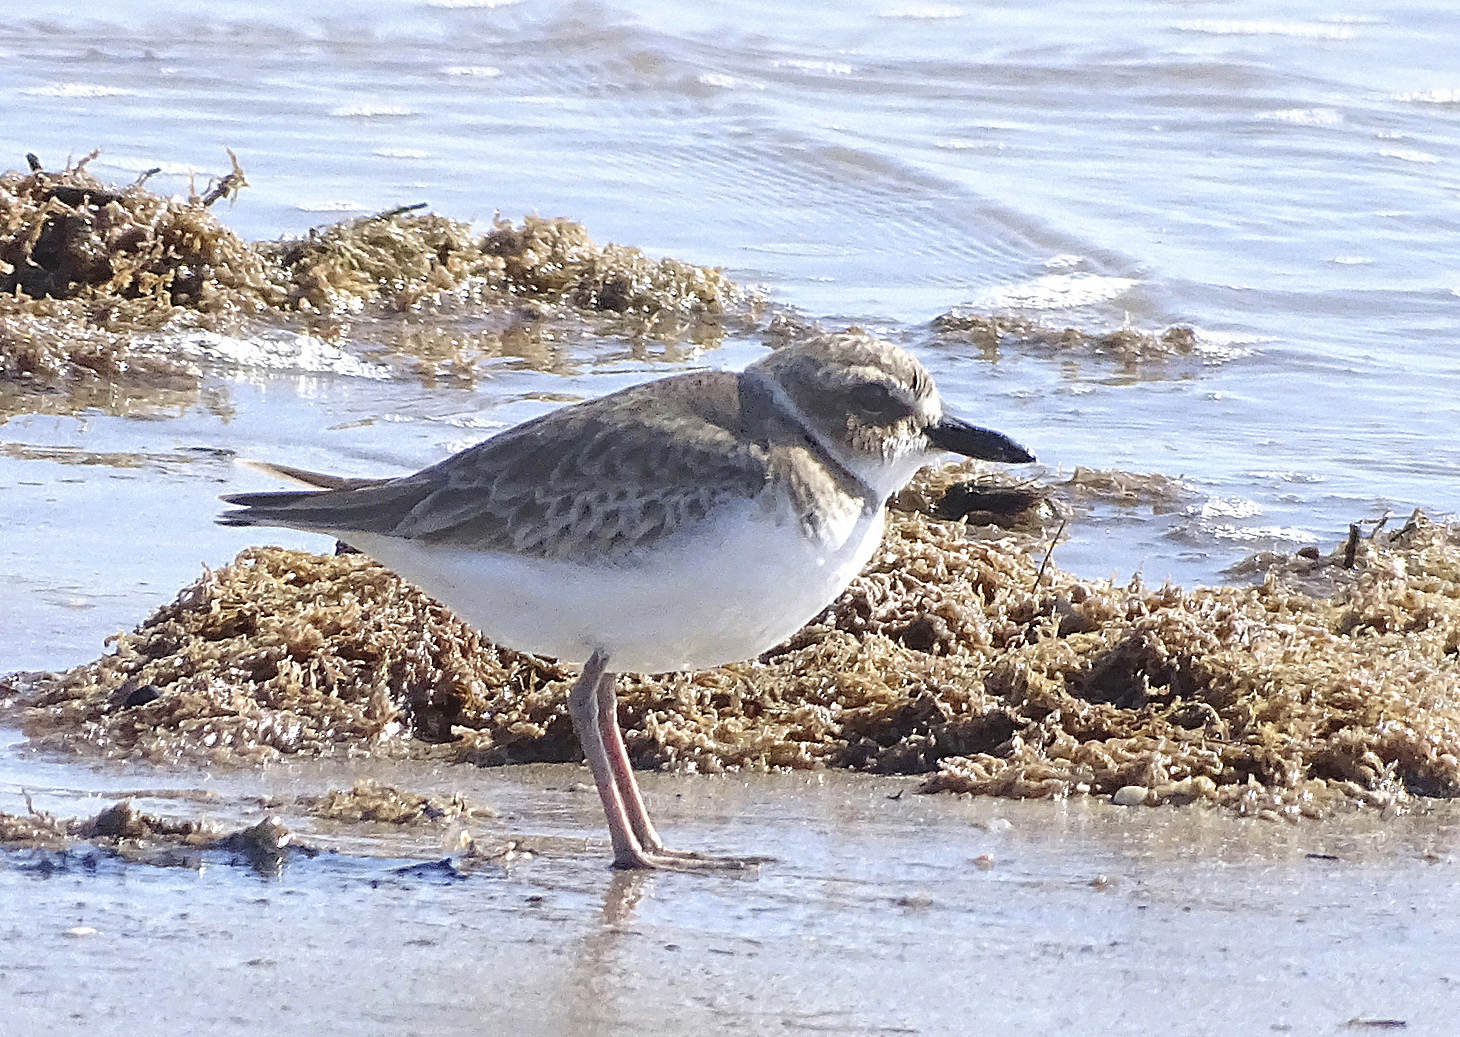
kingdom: Animalia
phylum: Chordata
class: Aves
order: Charadriiformes
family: Charadriidae
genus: Anarhynchus
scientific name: Anarhynchus
